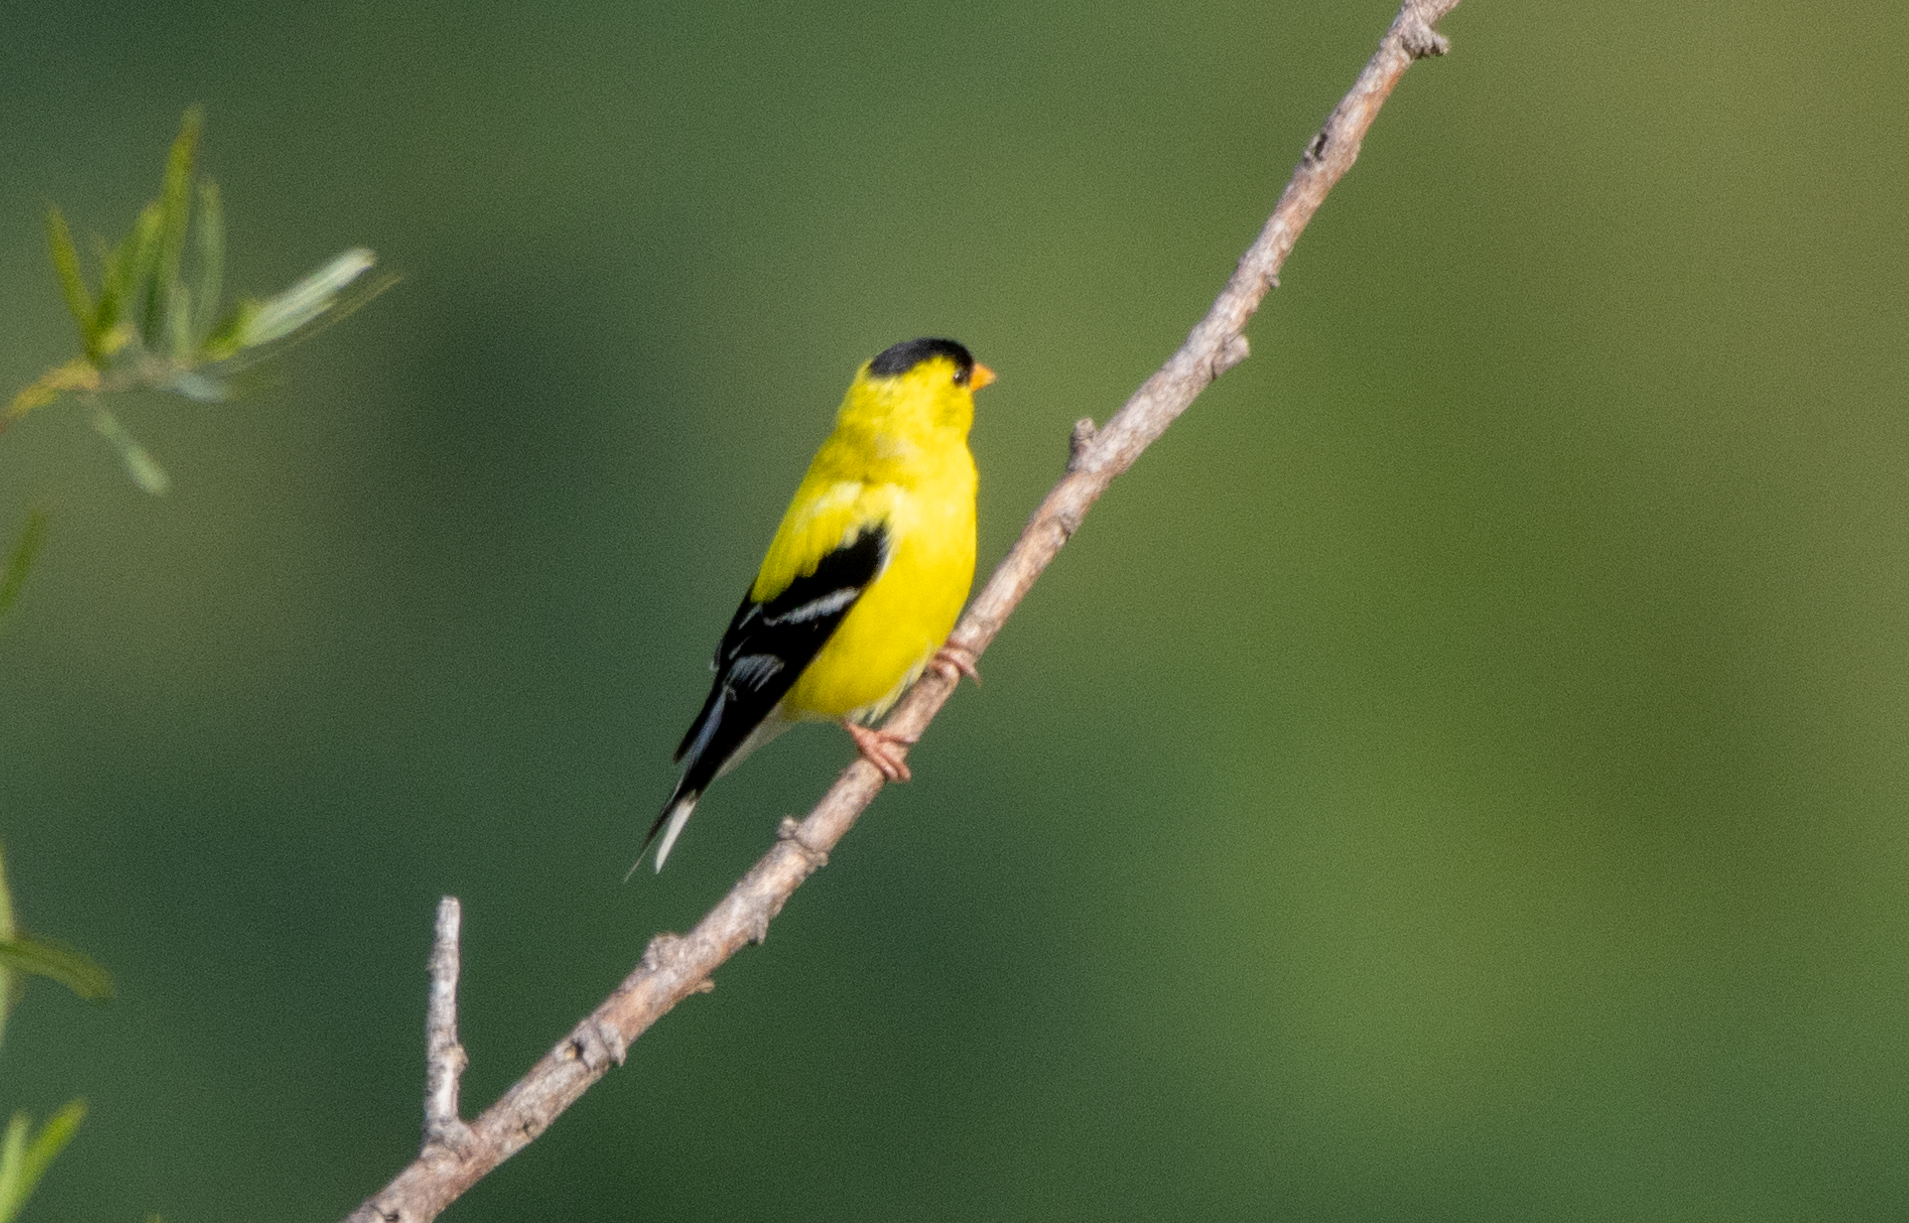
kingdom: Animalia
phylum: Chordata
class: Aves
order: Passeriformes
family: Fringillidae
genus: Spinus
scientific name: Spinus tristis
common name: American goldfinch
